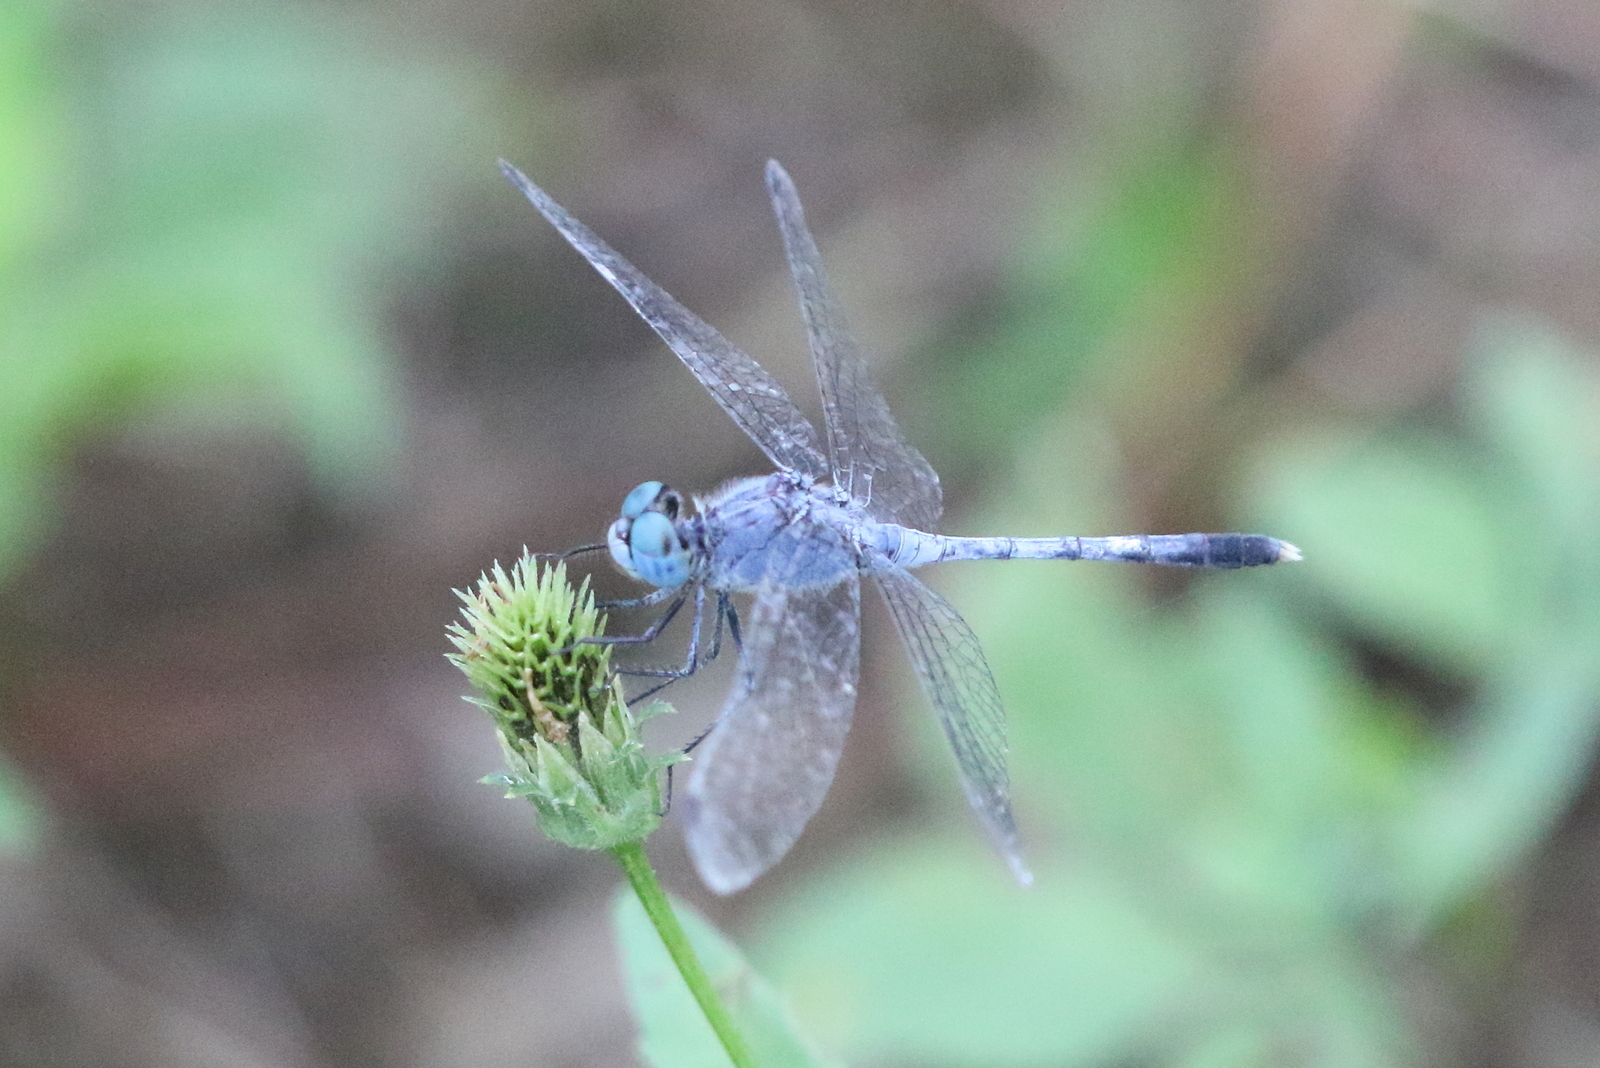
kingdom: Animalia
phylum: Arthropoda
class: Insecta
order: Odonata
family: Libellulidae
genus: Diplacodes
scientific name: Diplacodes trivialis
